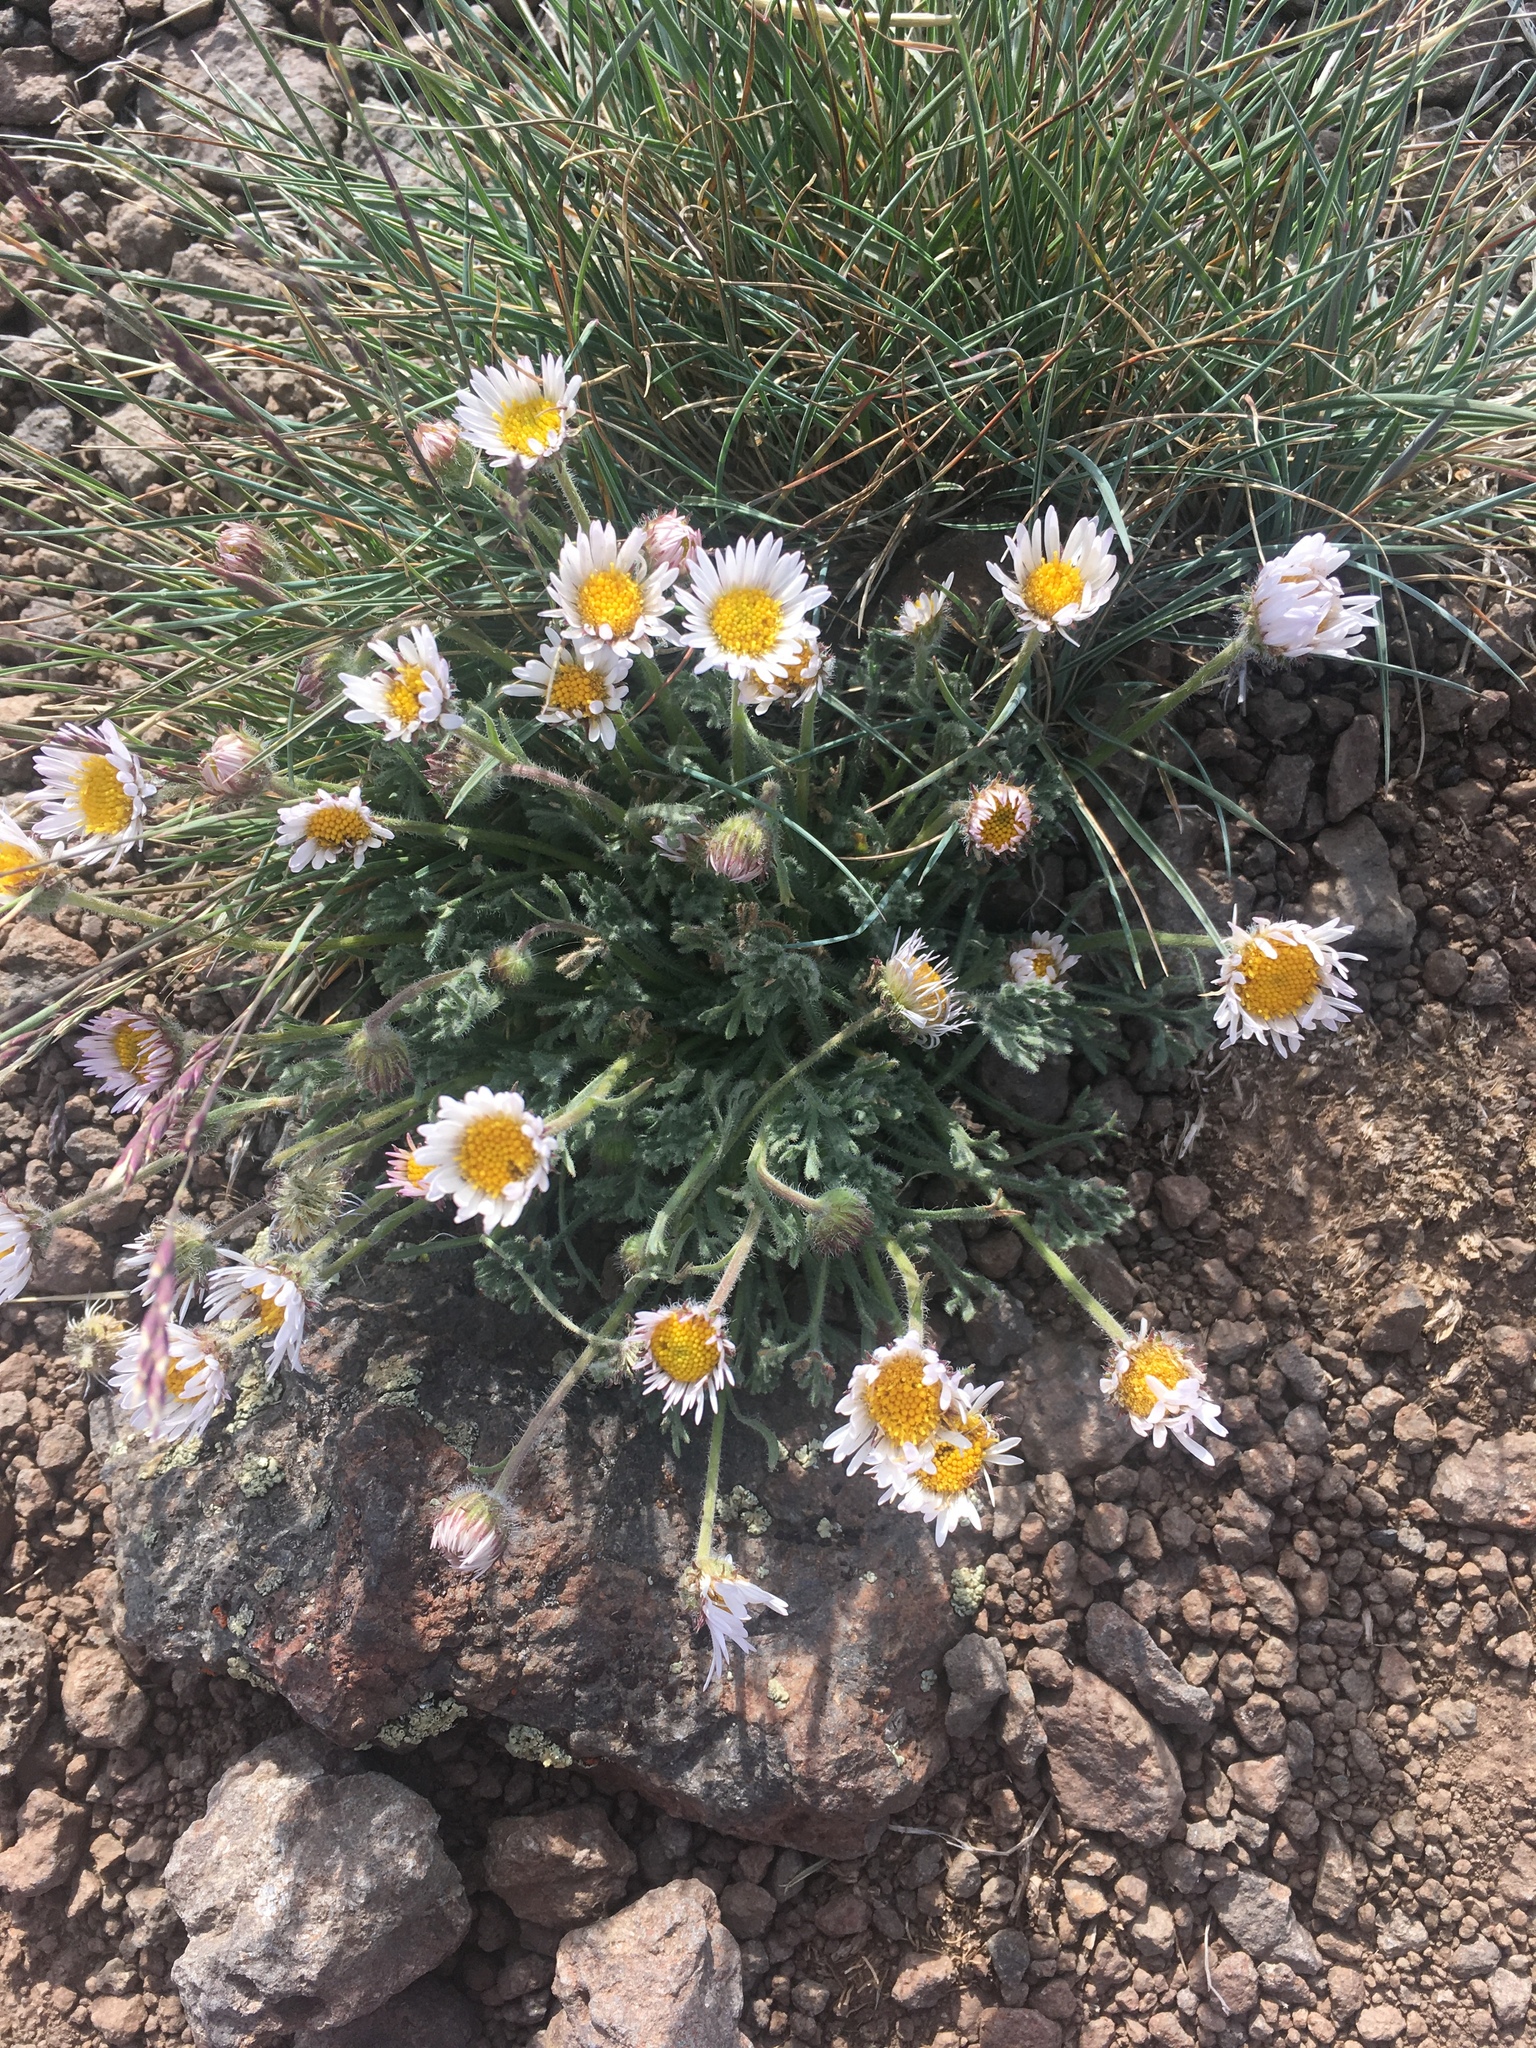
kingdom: Plantae
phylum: Tracheophyta
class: Magnoliopsida
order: Asterales
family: Asteraceae
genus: Erigeron
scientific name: Erigeron compositus
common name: Dwarf mountain fleabane
